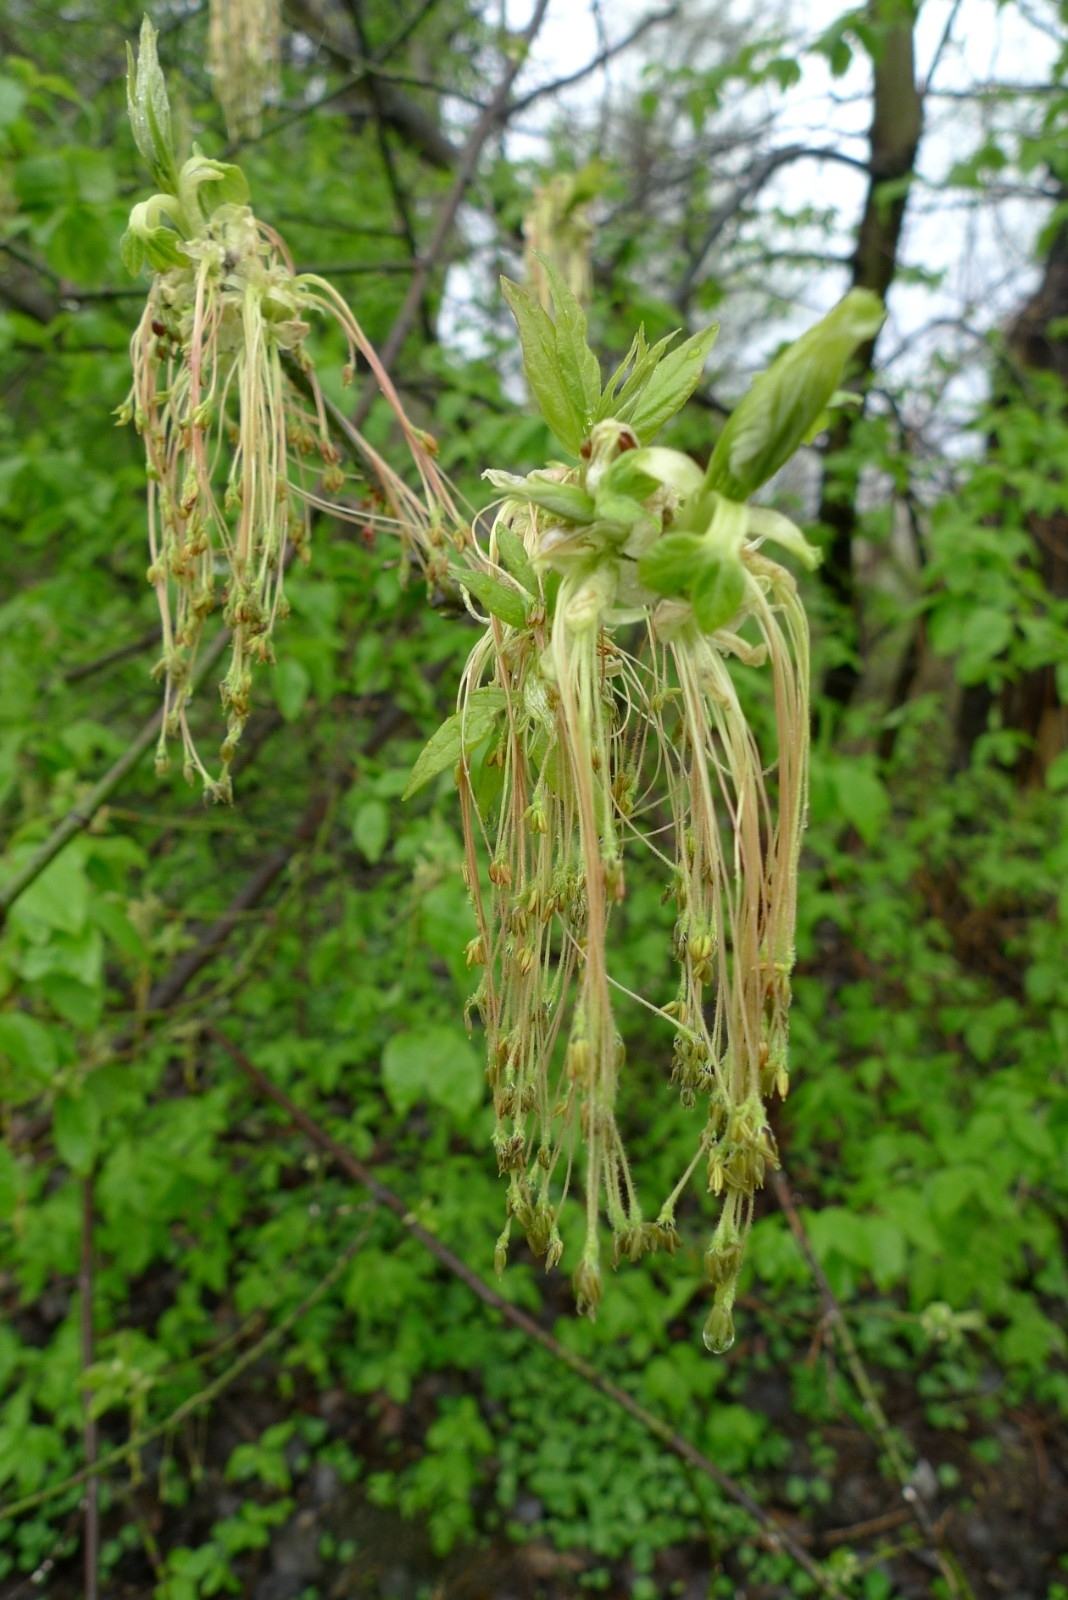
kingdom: Plantae
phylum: Tracheophyta
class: Magnoliopsida
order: Sapindales
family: Sapindaceae
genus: Acer
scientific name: Acer negundo
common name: Ashleaf maple
